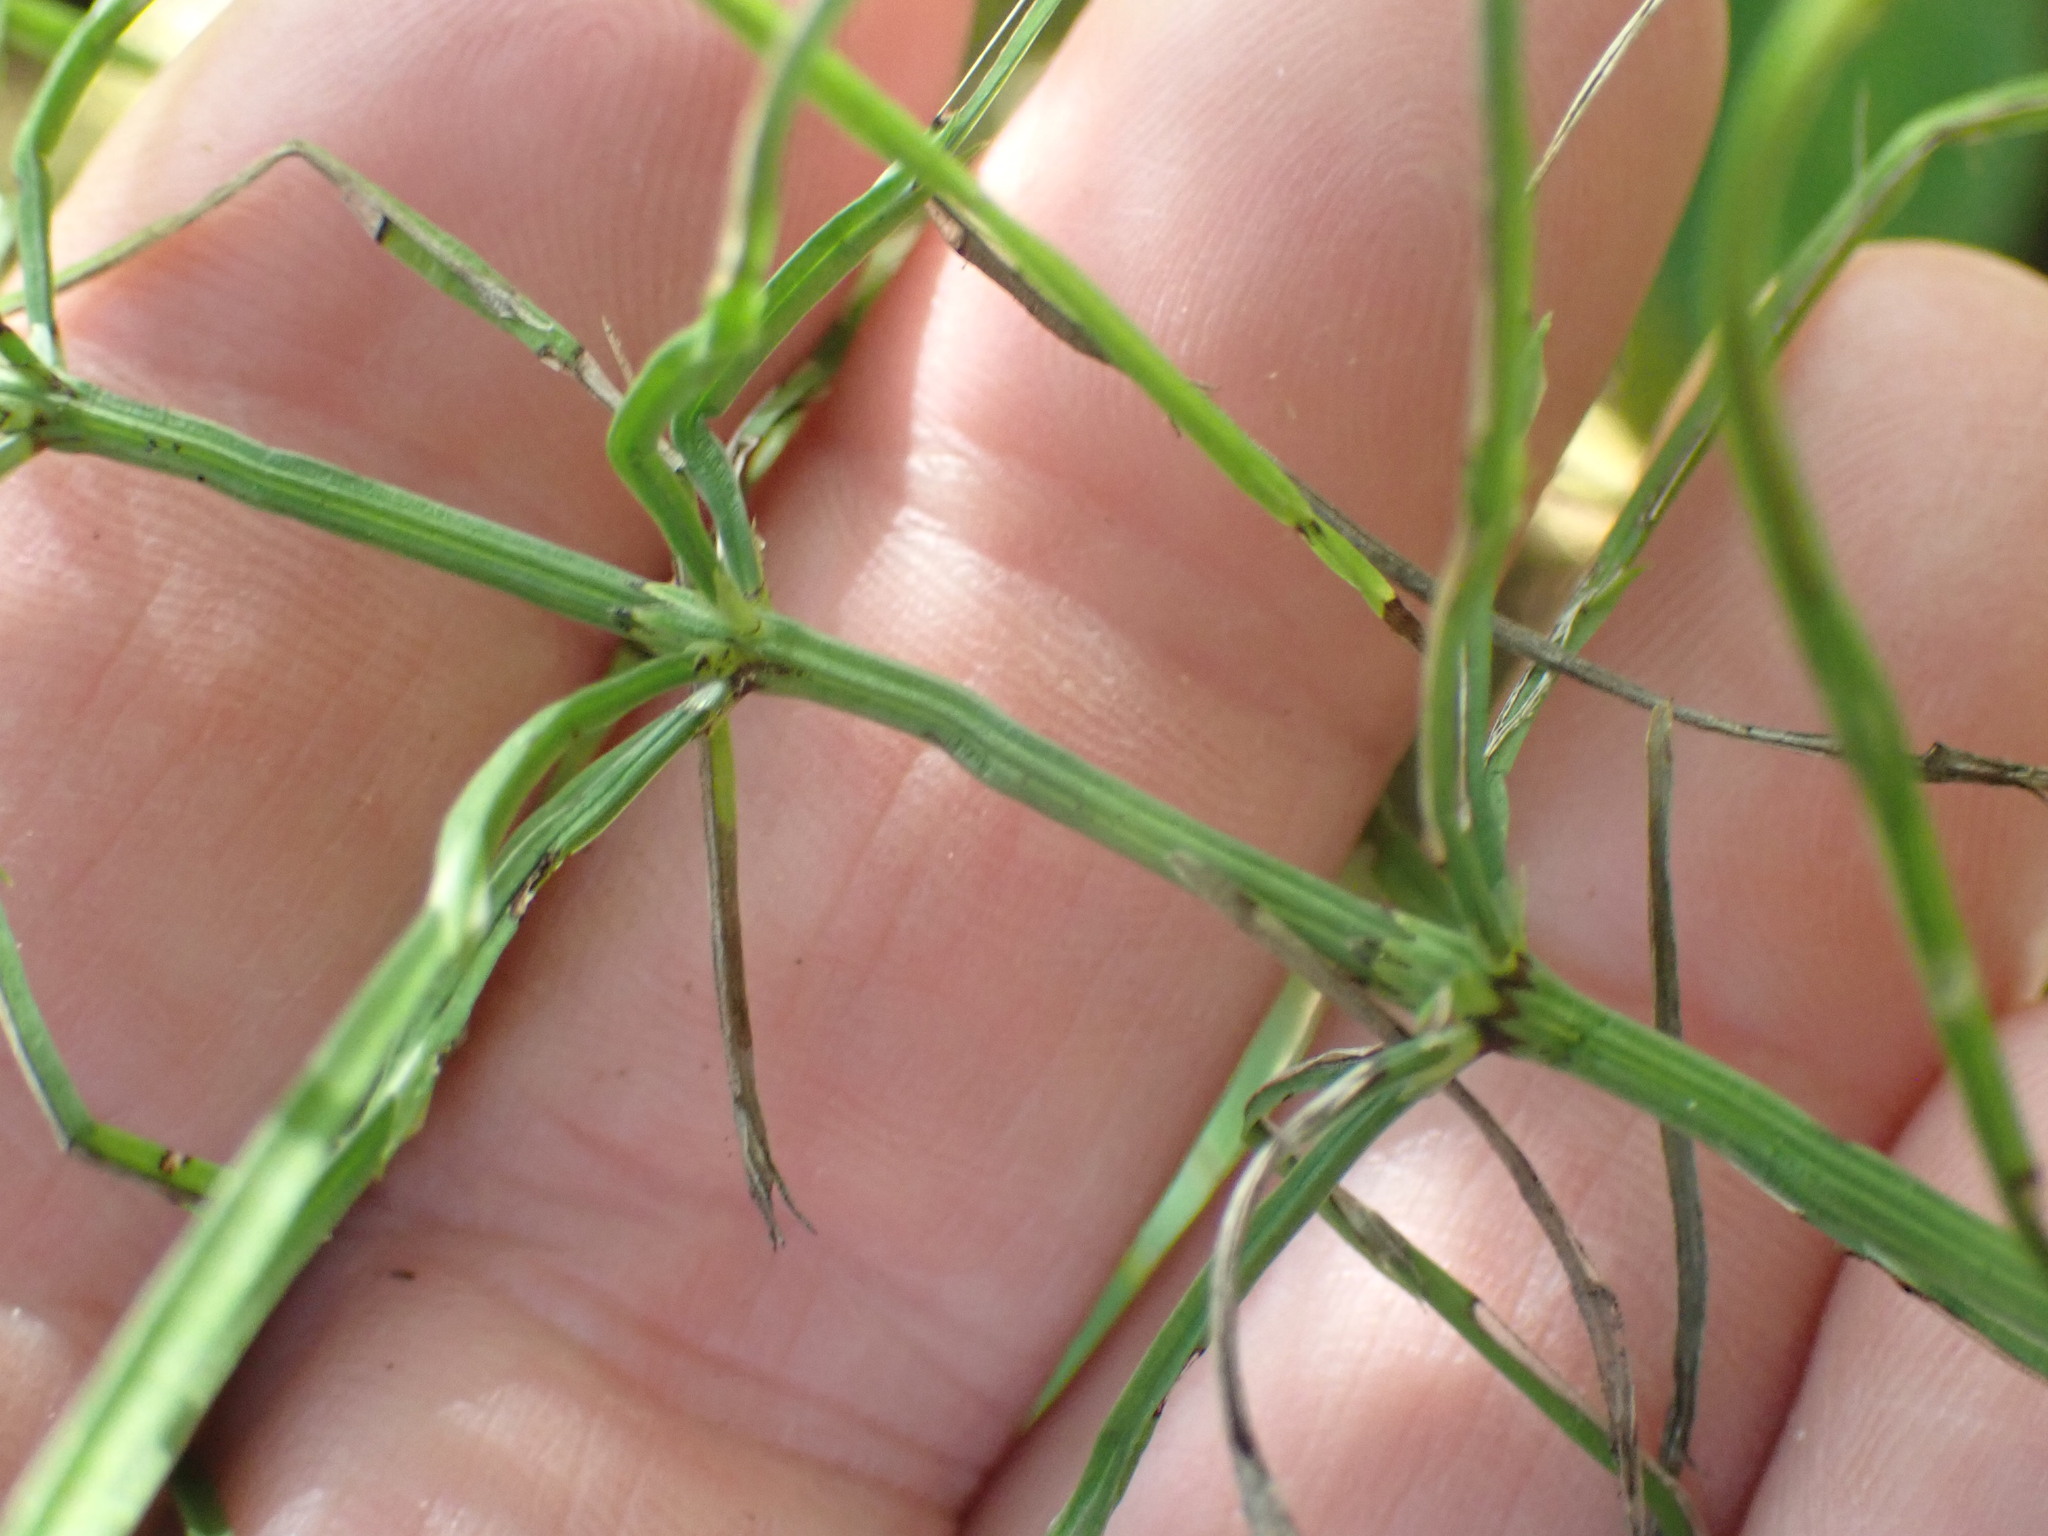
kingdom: Plantae
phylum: Tracheophyta
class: Polypodiopsida
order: Equisetales
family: Equisetaceae
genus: Equisetum
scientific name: Equisetum arvense
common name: Field horsetail
